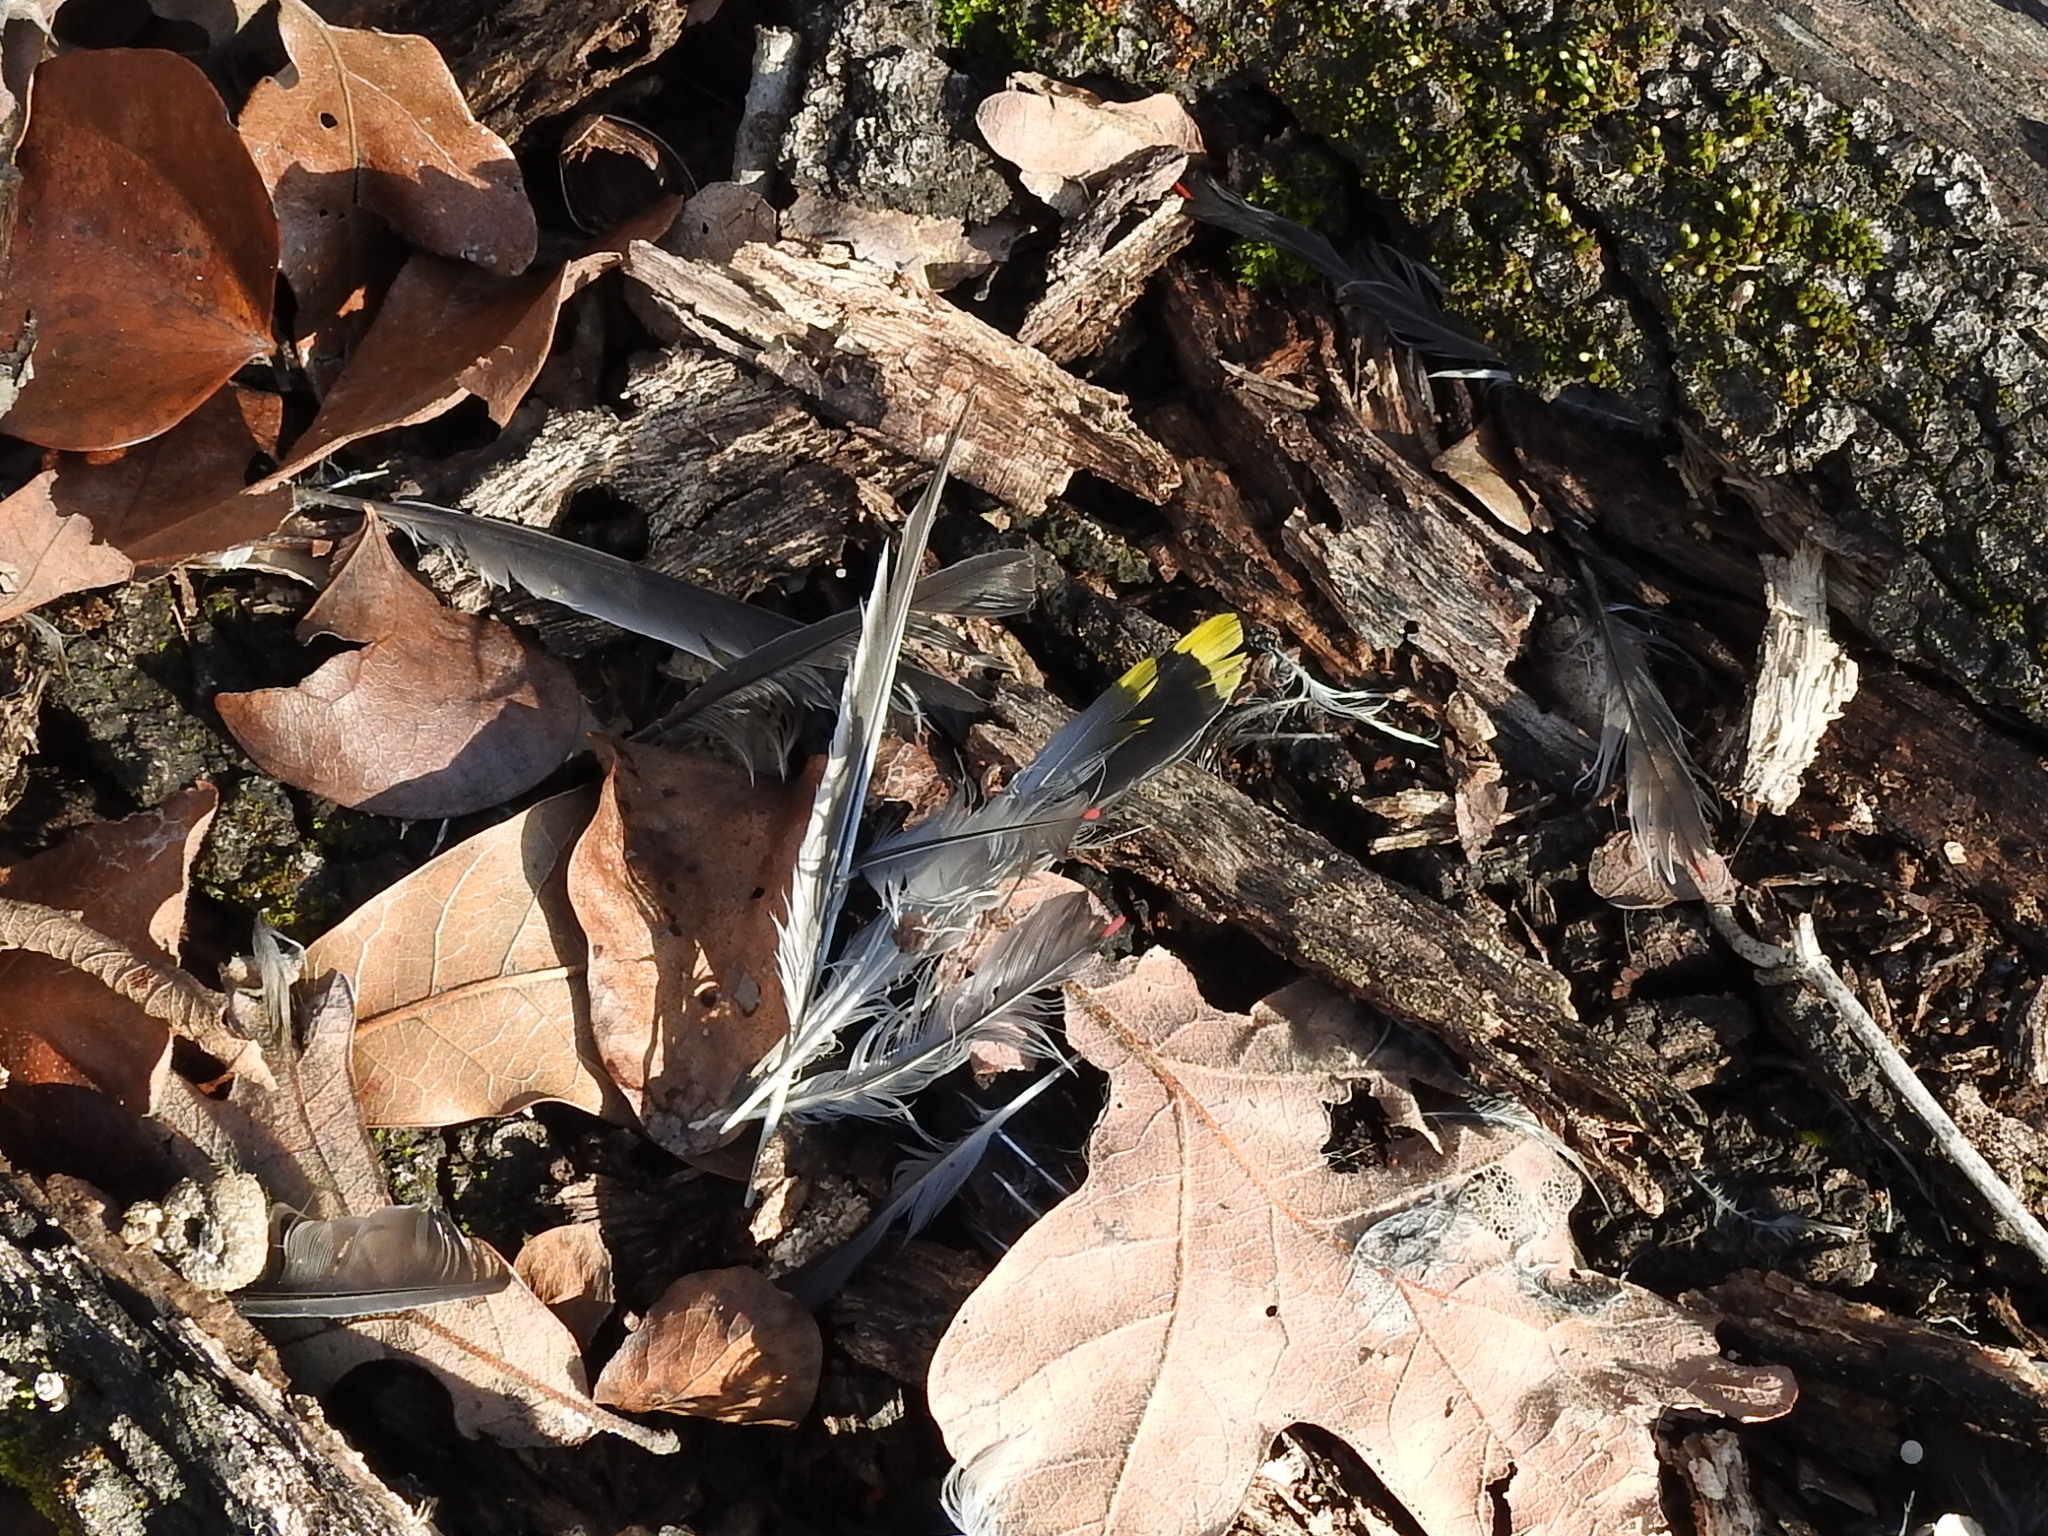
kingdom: Animalia
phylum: Chordata
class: Aves
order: Passeriformes
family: Bombycillidae
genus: Bombycilla
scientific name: Bombycilla cedrorum
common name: Cedar waxwing
